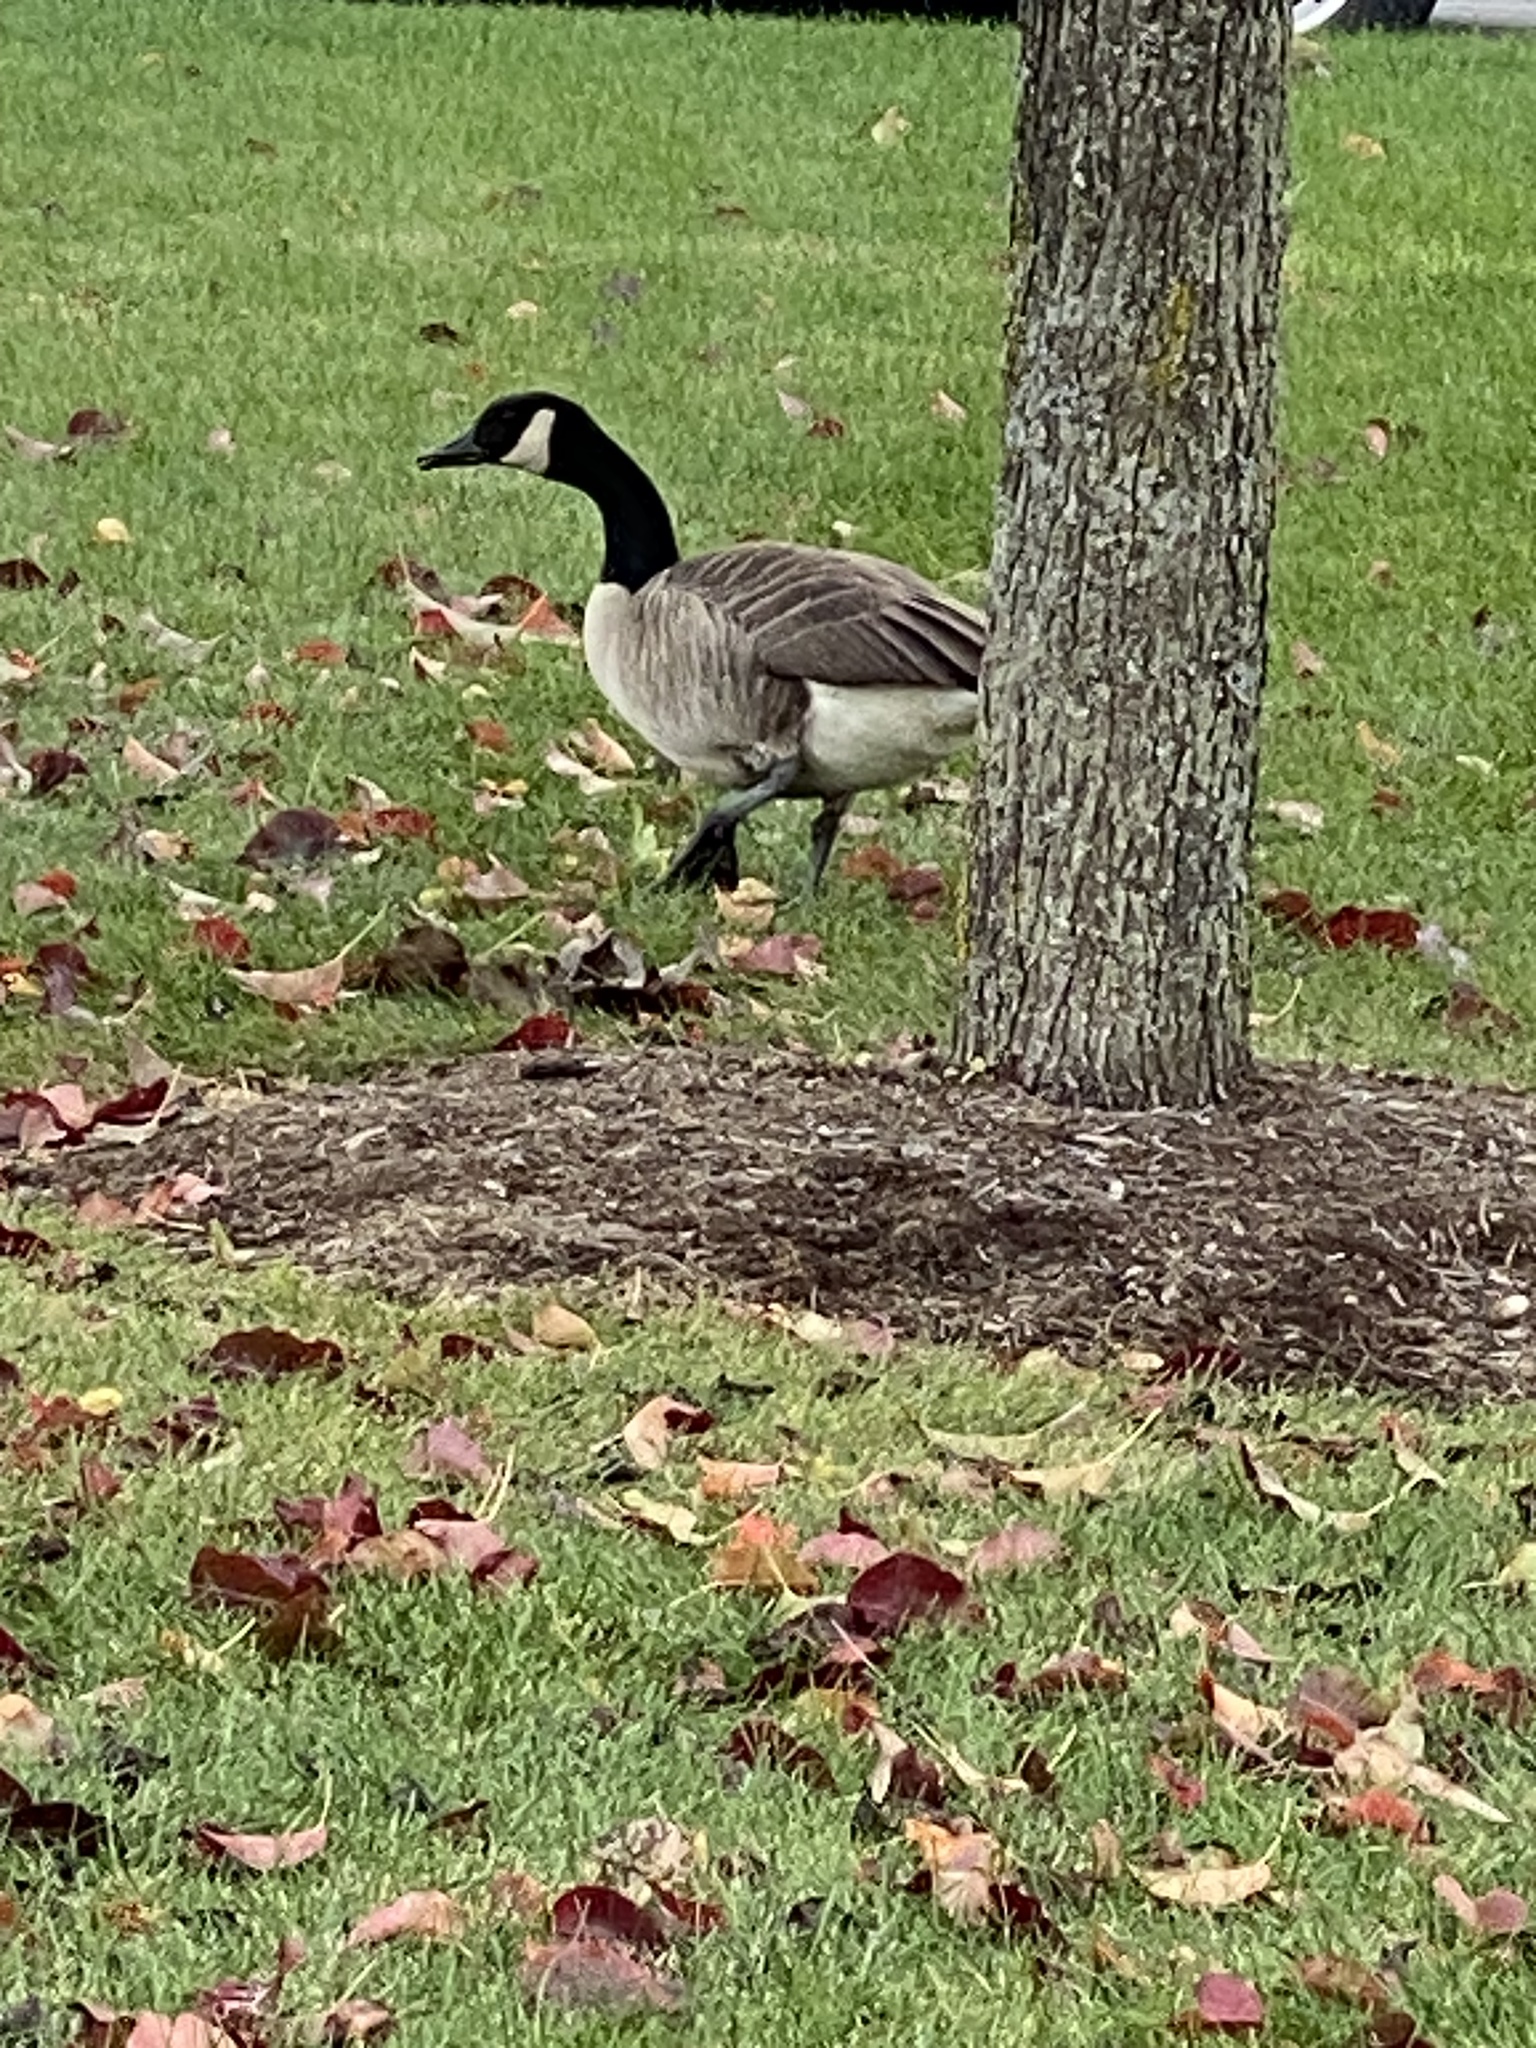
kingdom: Animalia
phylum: Chordata
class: Aves
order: Anseriformes
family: Anatidae
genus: Branta
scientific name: Branta canadensis
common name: Canada goose
